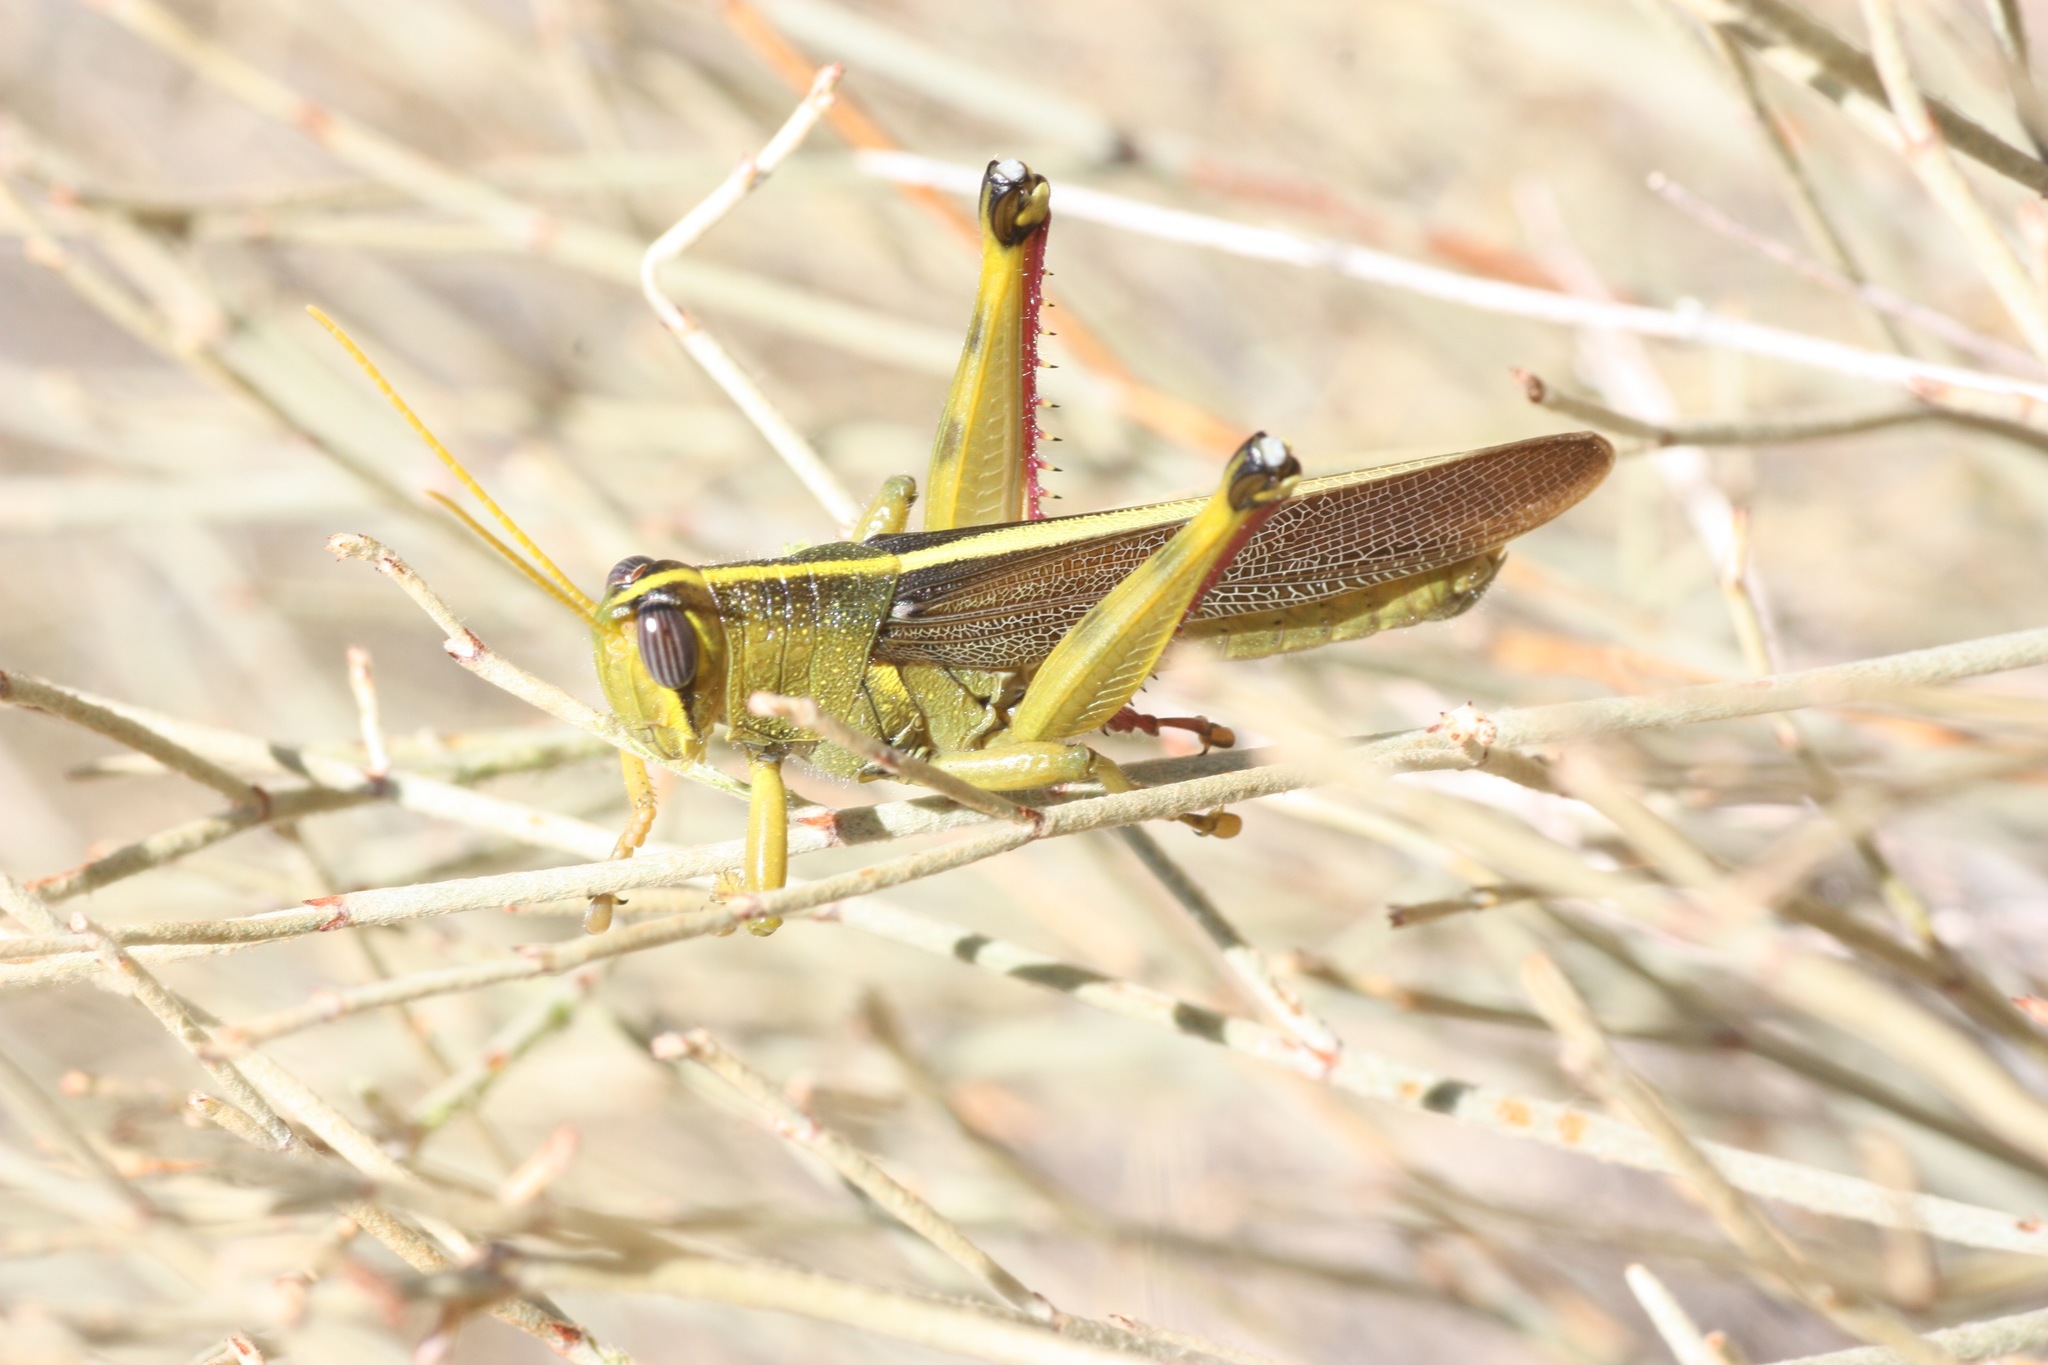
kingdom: Animalia
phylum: Arthropoda
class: Insecta
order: Orthoptera
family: Acrididae
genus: Schistocerca
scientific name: Schistocerca lineata
